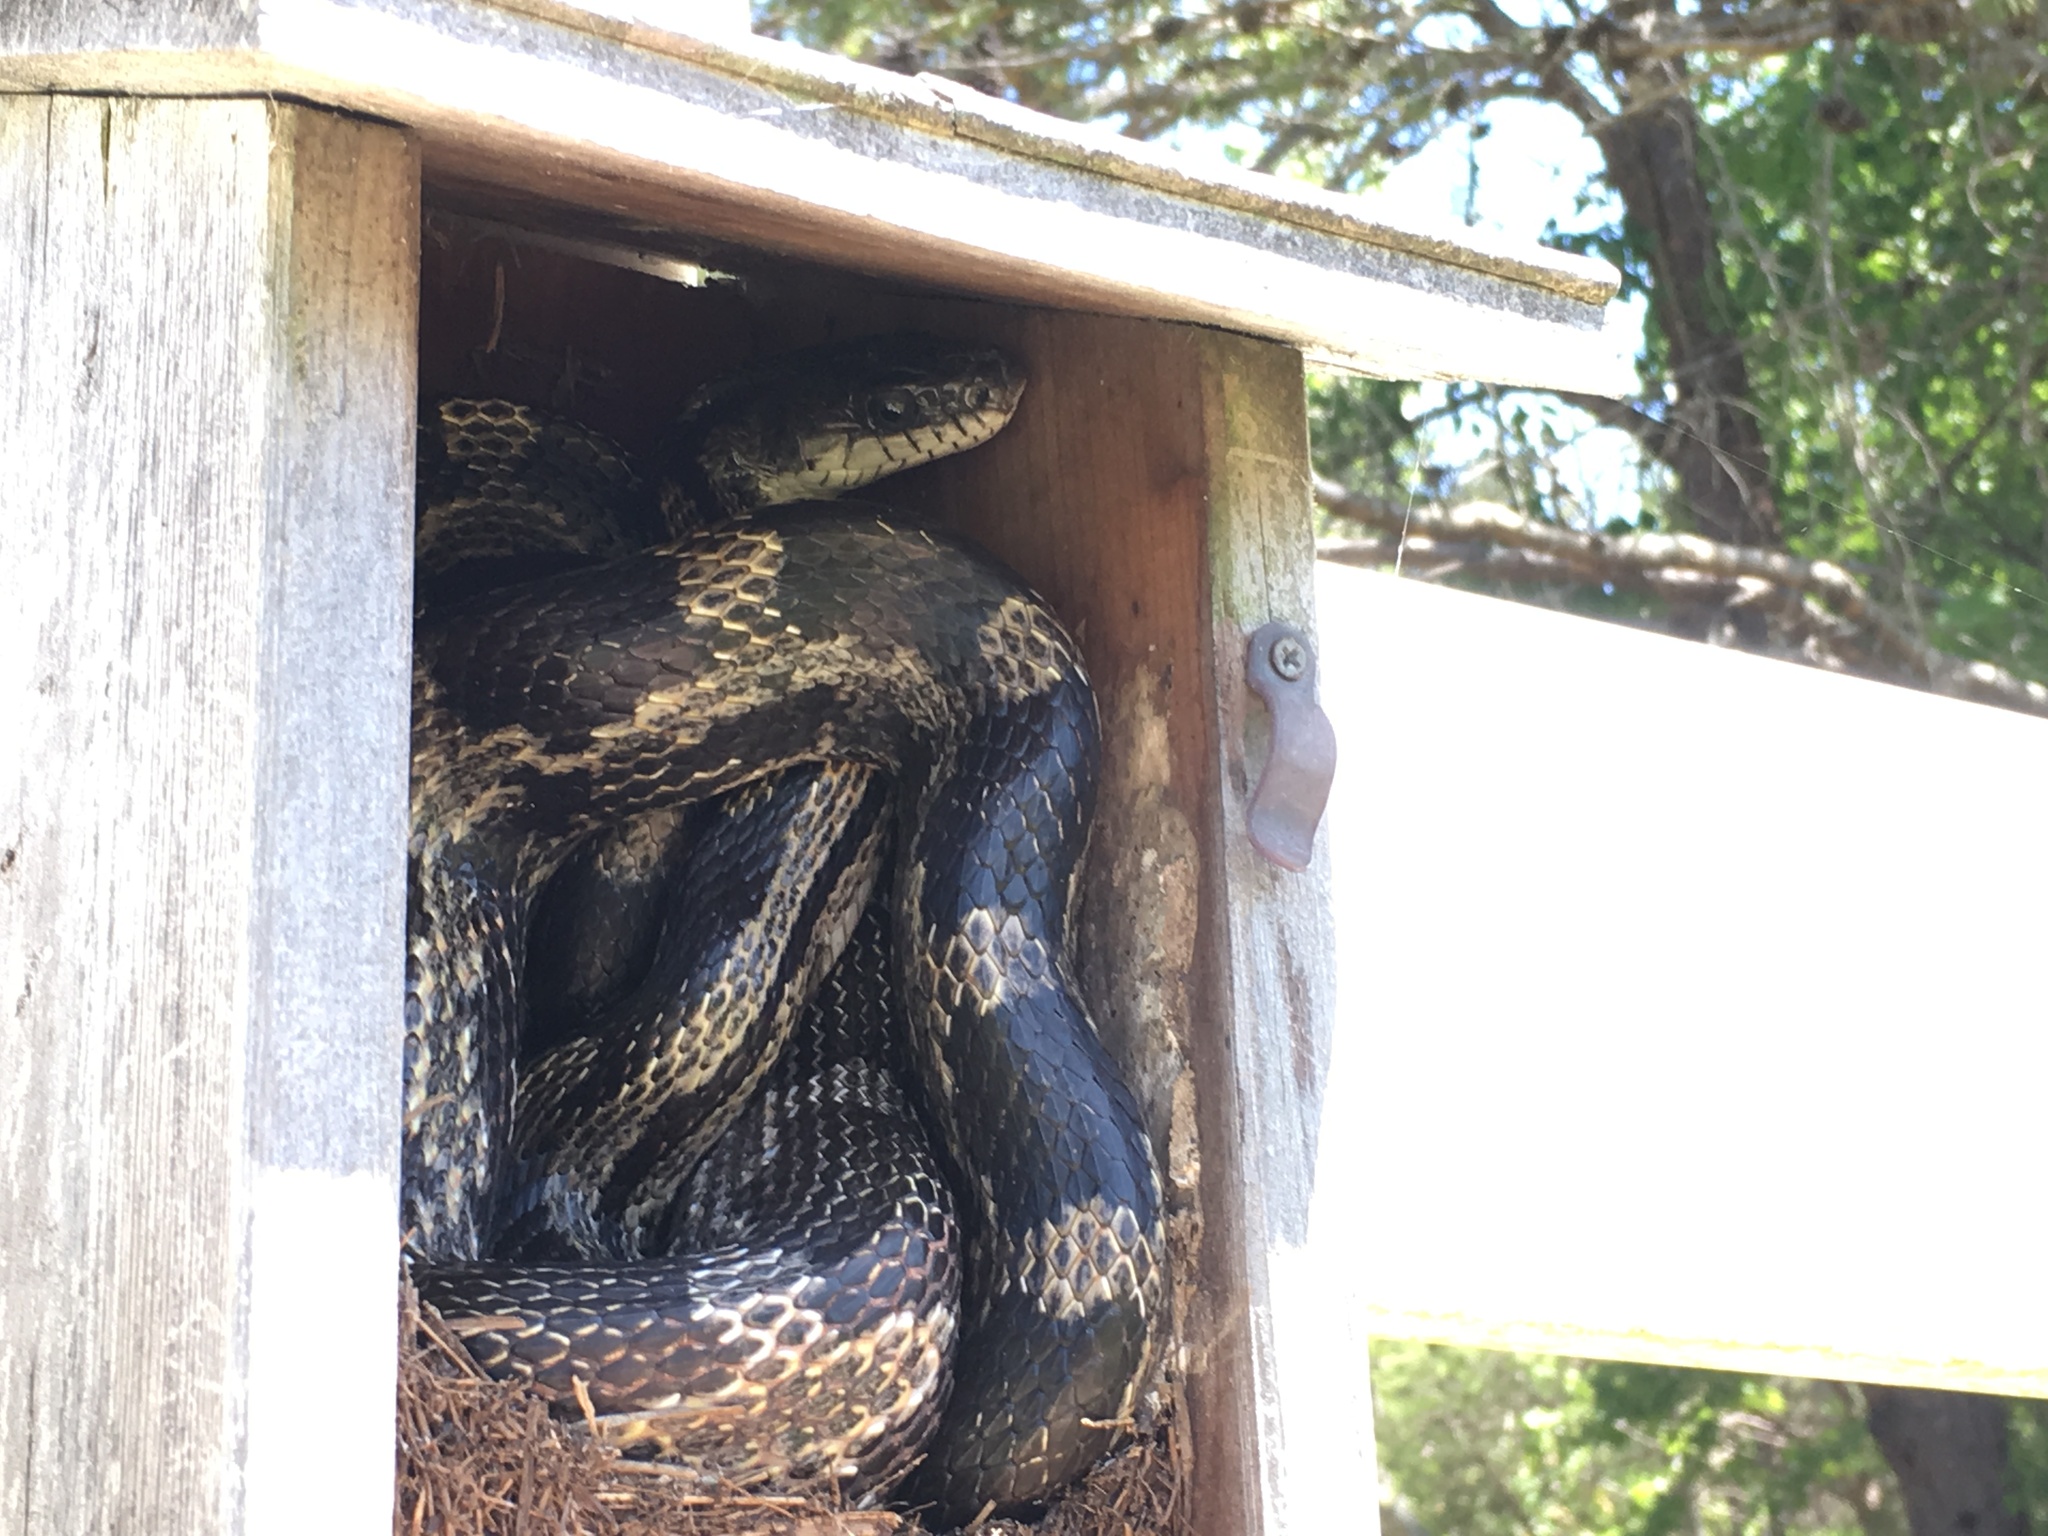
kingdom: Animalia
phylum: Chordata
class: Squamata
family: Colubridae
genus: Pantherophis
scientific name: Pantherophis spiloides
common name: Gray rat snake
